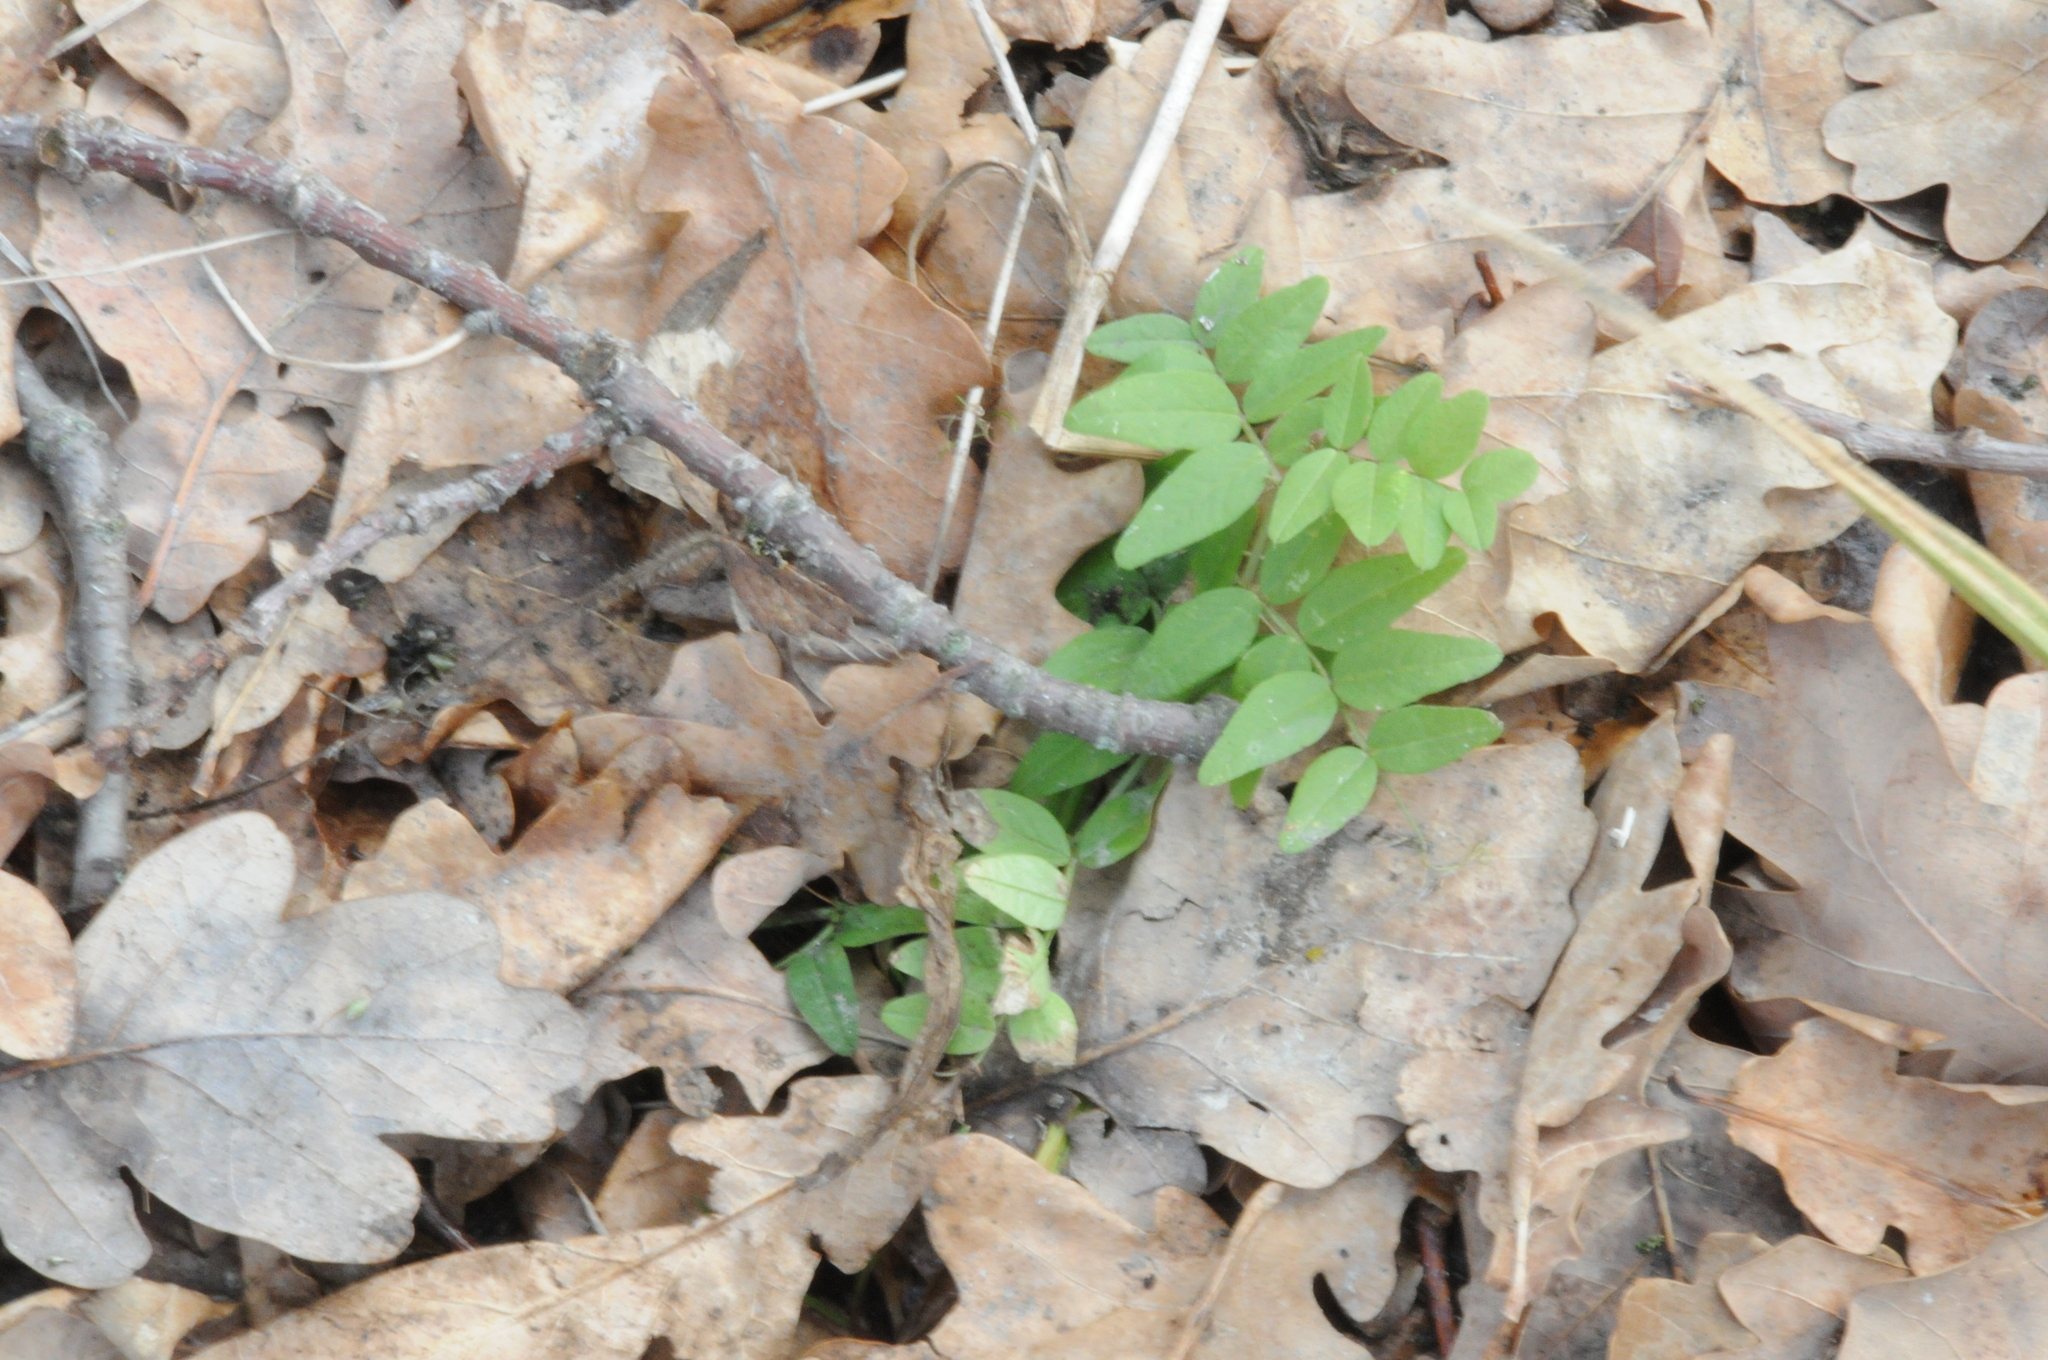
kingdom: Plantae
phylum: Tracheophyta
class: Magnoliopsida
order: Fabales
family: Fabaceae
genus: Vicia
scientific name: Vicia sepium
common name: Bush vetch
